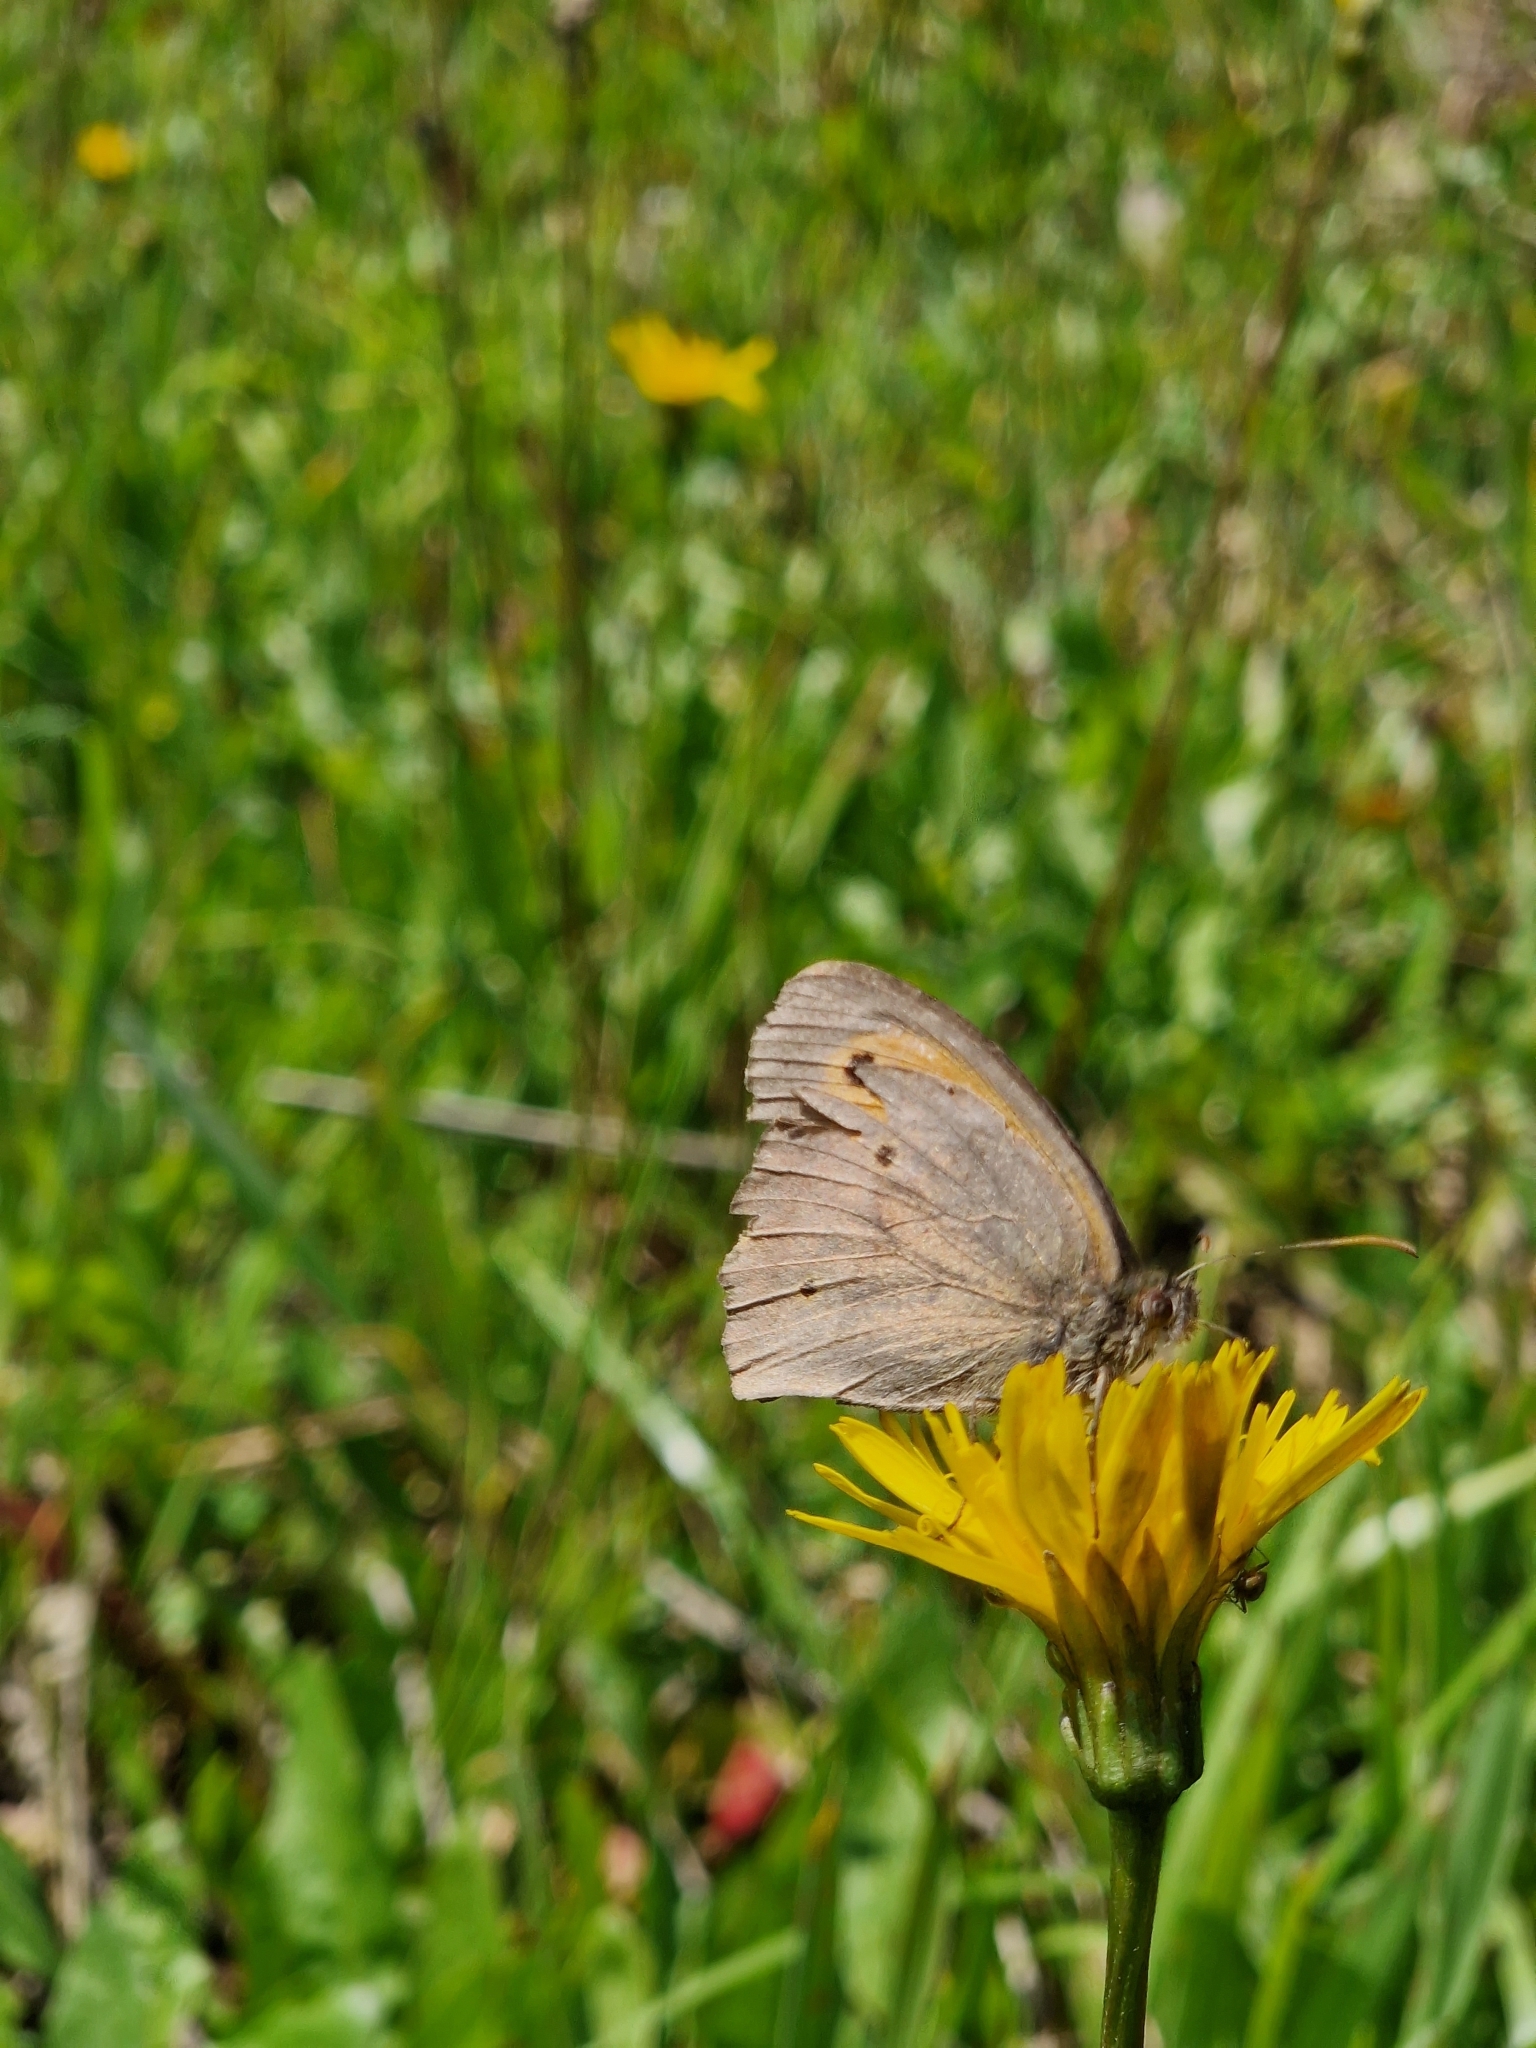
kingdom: Animalia
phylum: Arthropoda
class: Insecta
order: Lepidoptera
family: Nymphalidae
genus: Maniola
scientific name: Maniola jurtina
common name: Meadow brown
